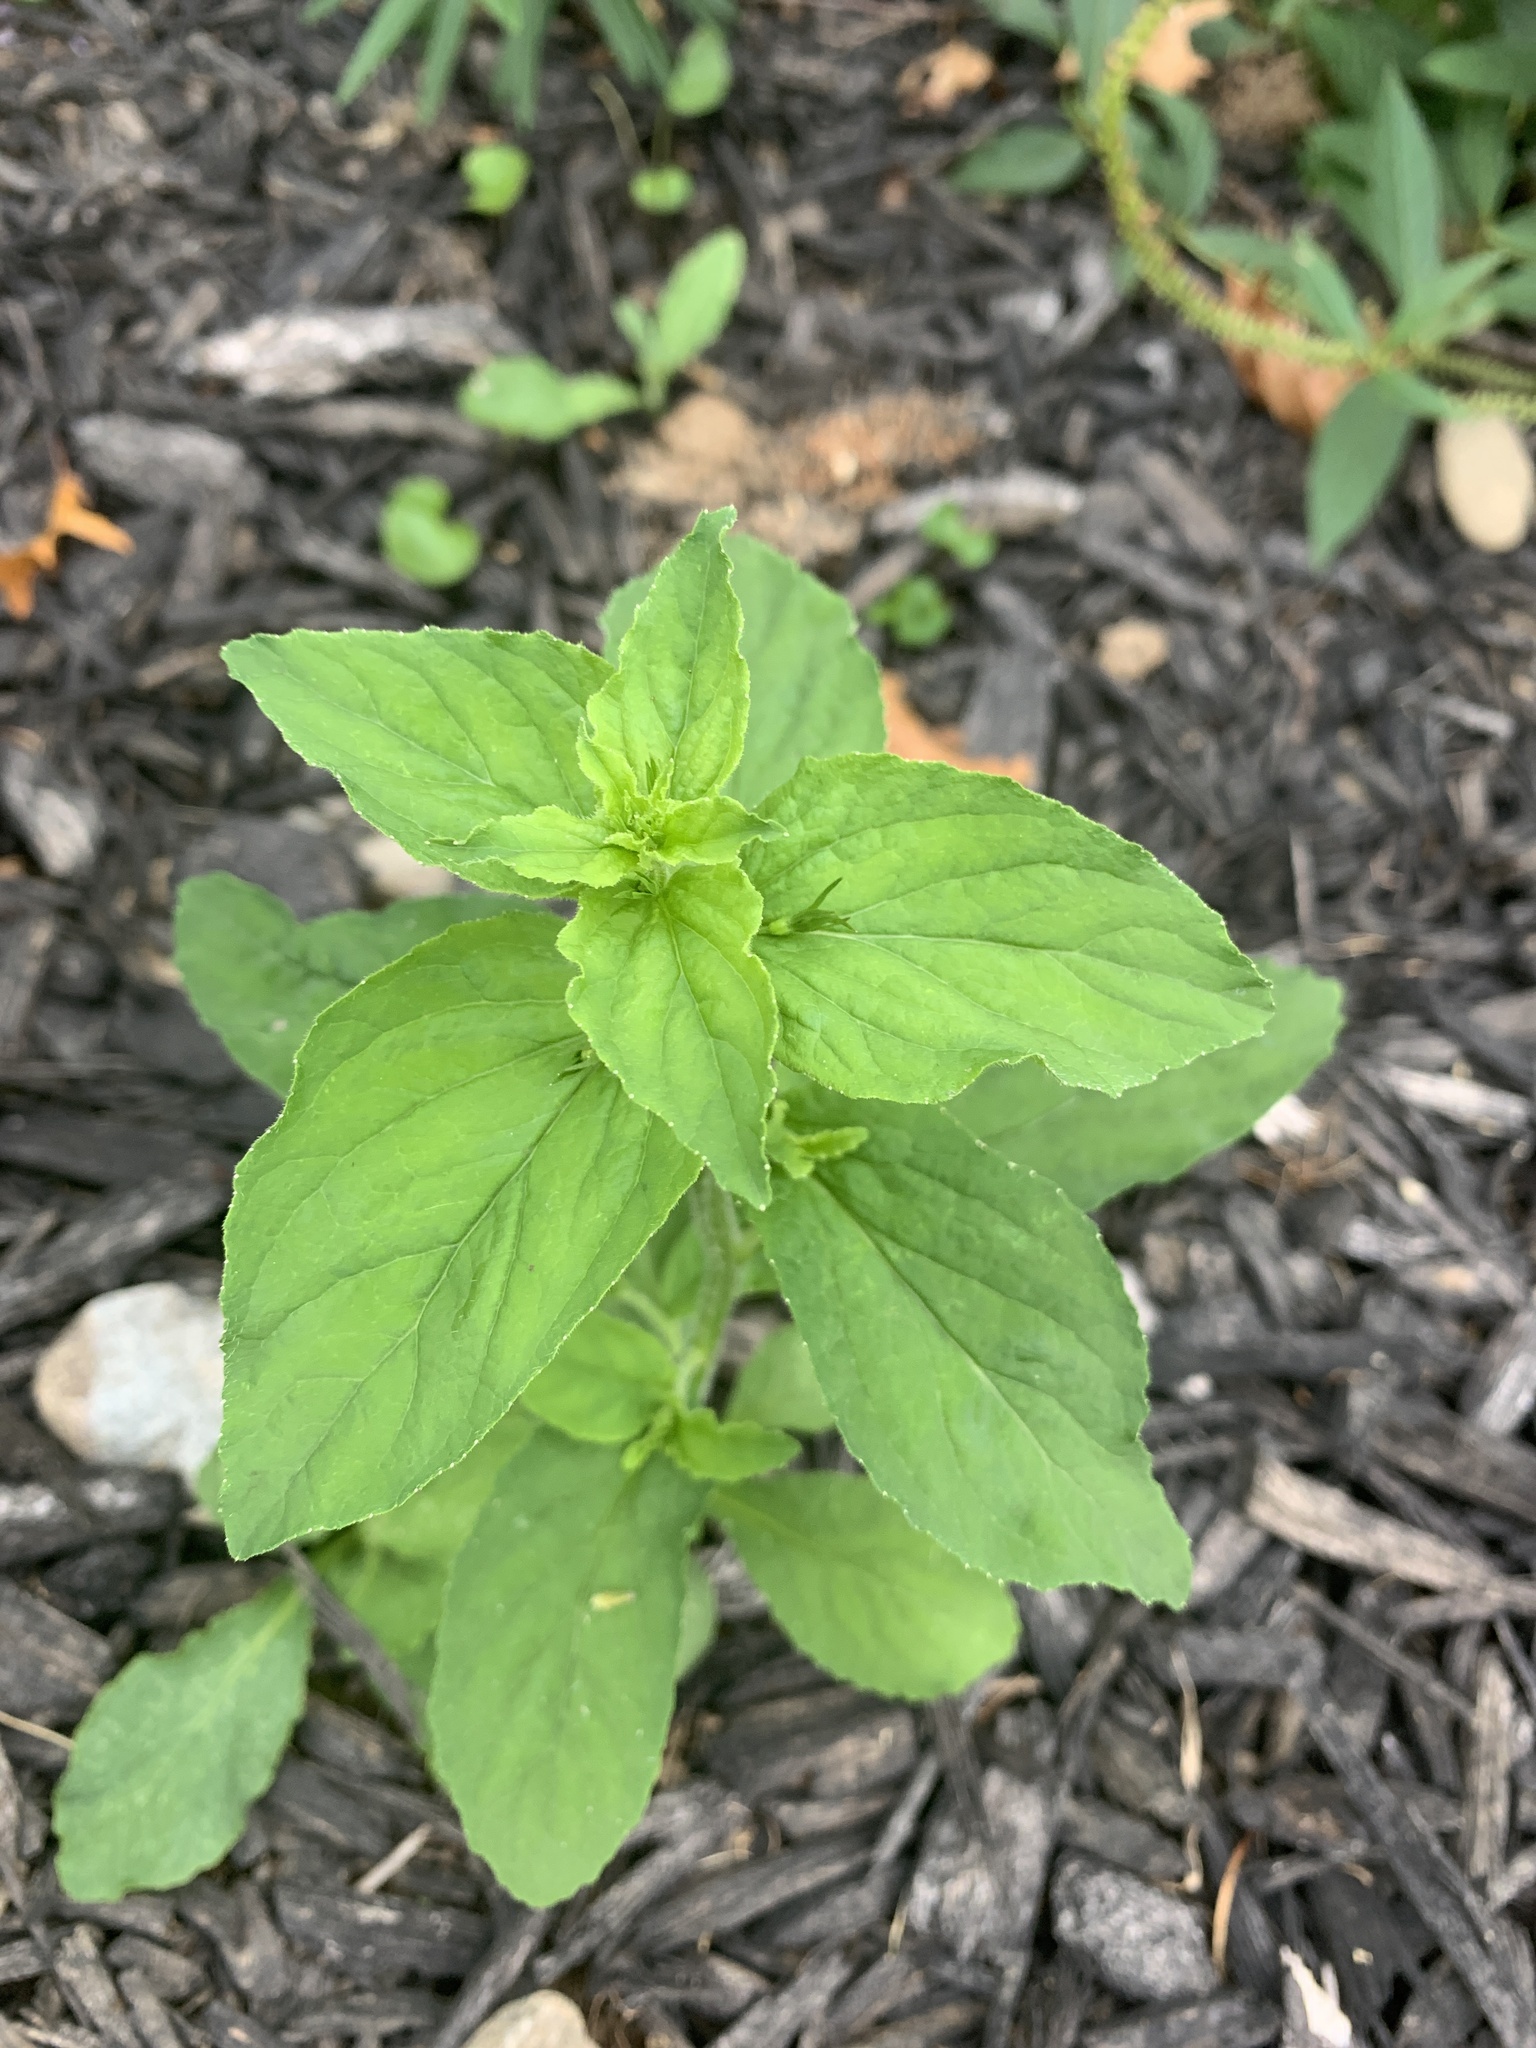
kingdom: Plantae
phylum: Tracheophyta
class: Magnoliopsida
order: Asterales
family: Campanulaceae
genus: Lobelia
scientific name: Lobelia inflata
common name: Indian tobacco
